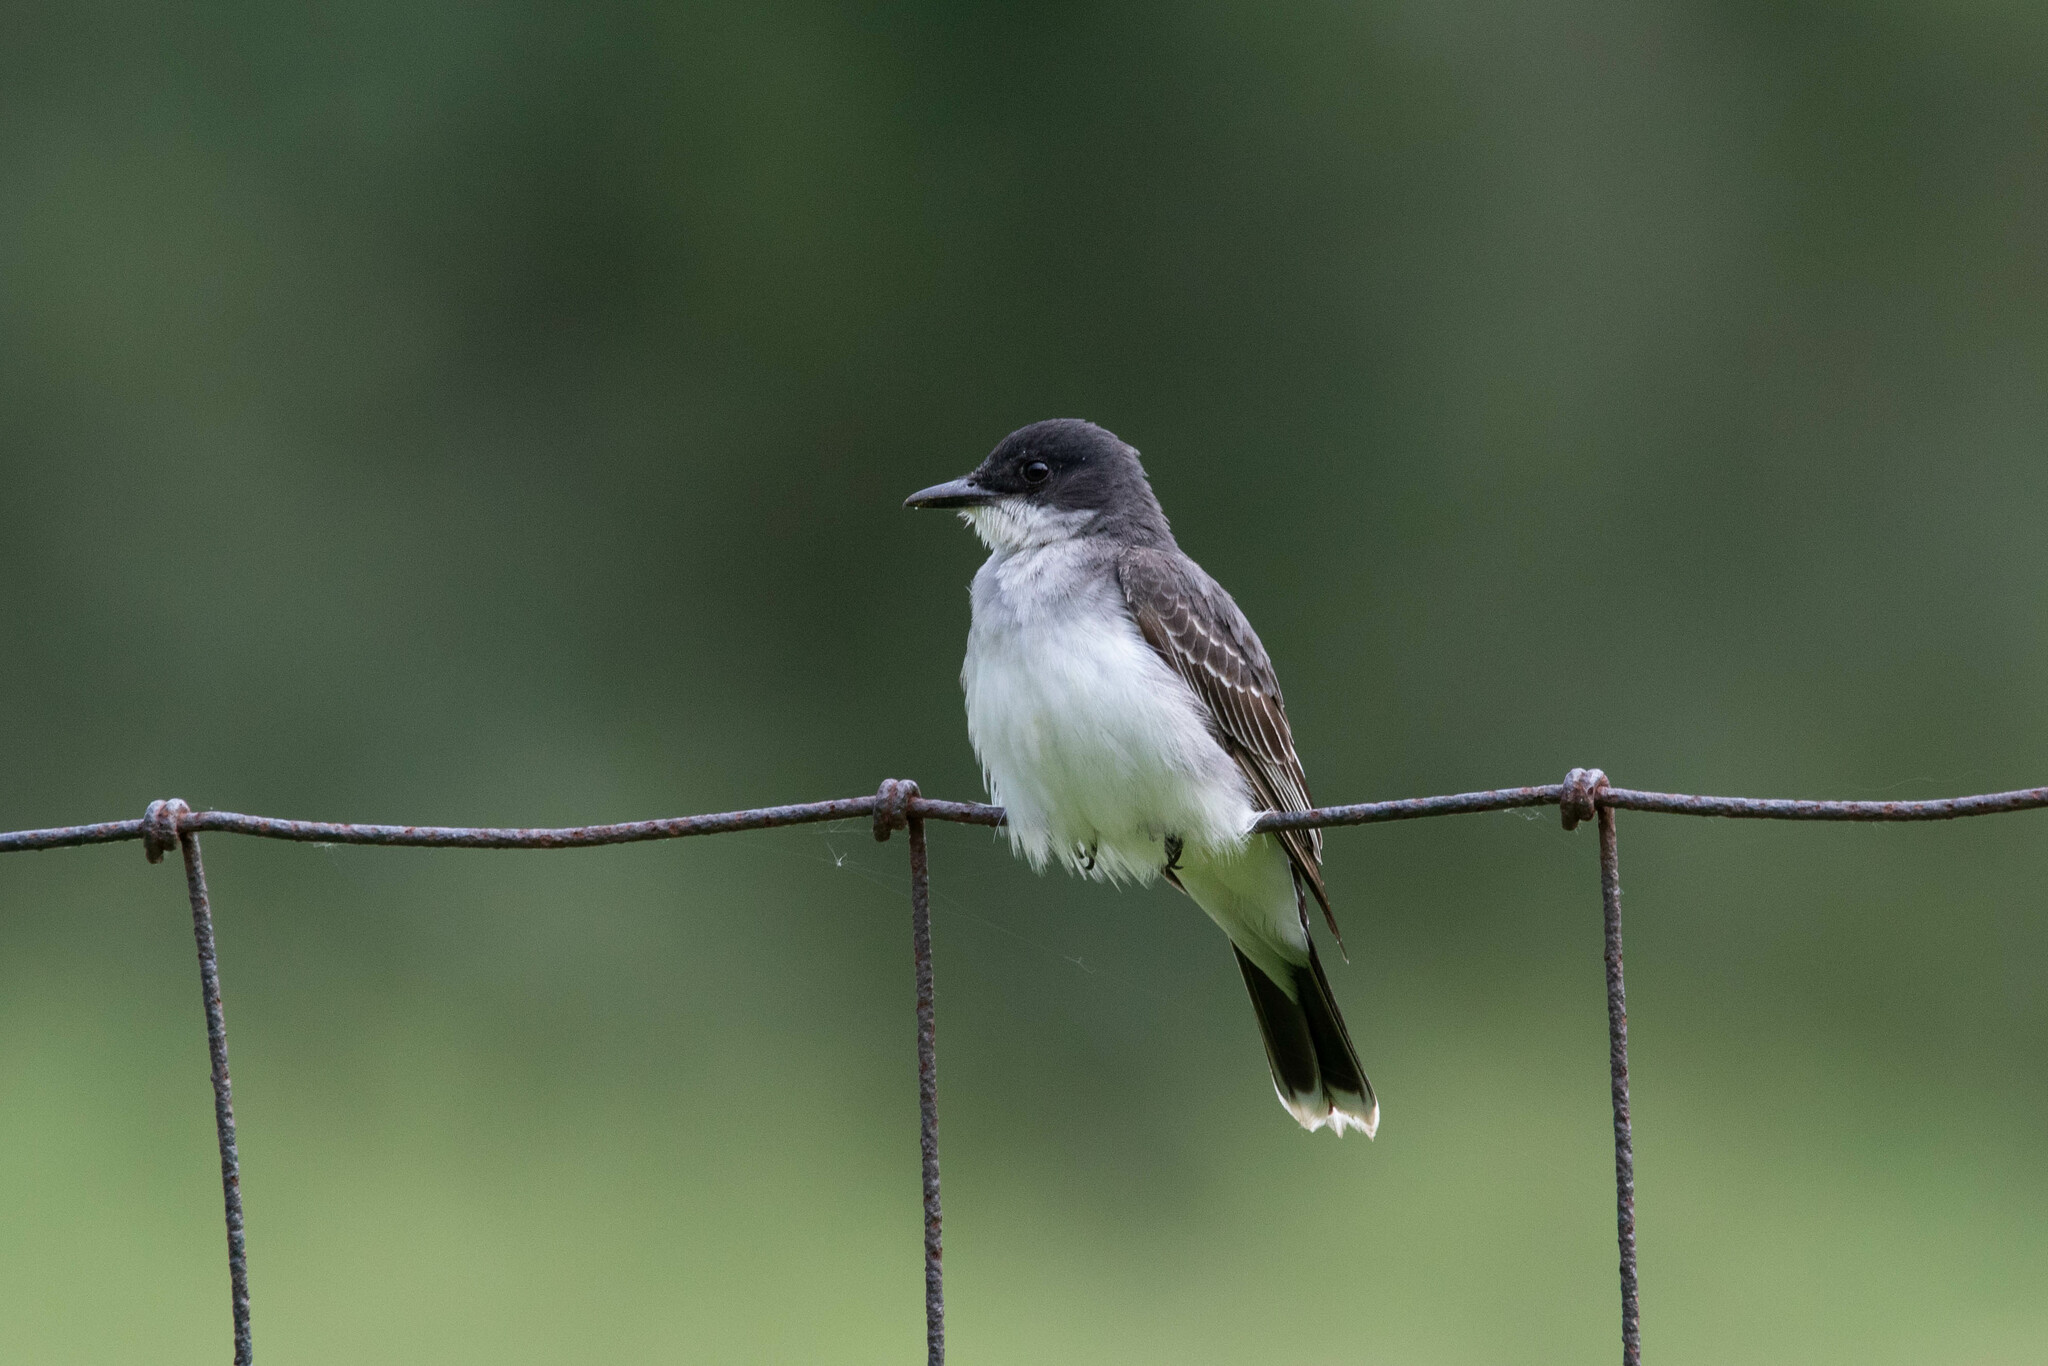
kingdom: Animalia
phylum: Chordata
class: Aves
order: Passeriformes
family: Tyrannidae
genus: Tyrannus
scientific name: Tyrannus tyrannus
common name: Eastern kingbird
